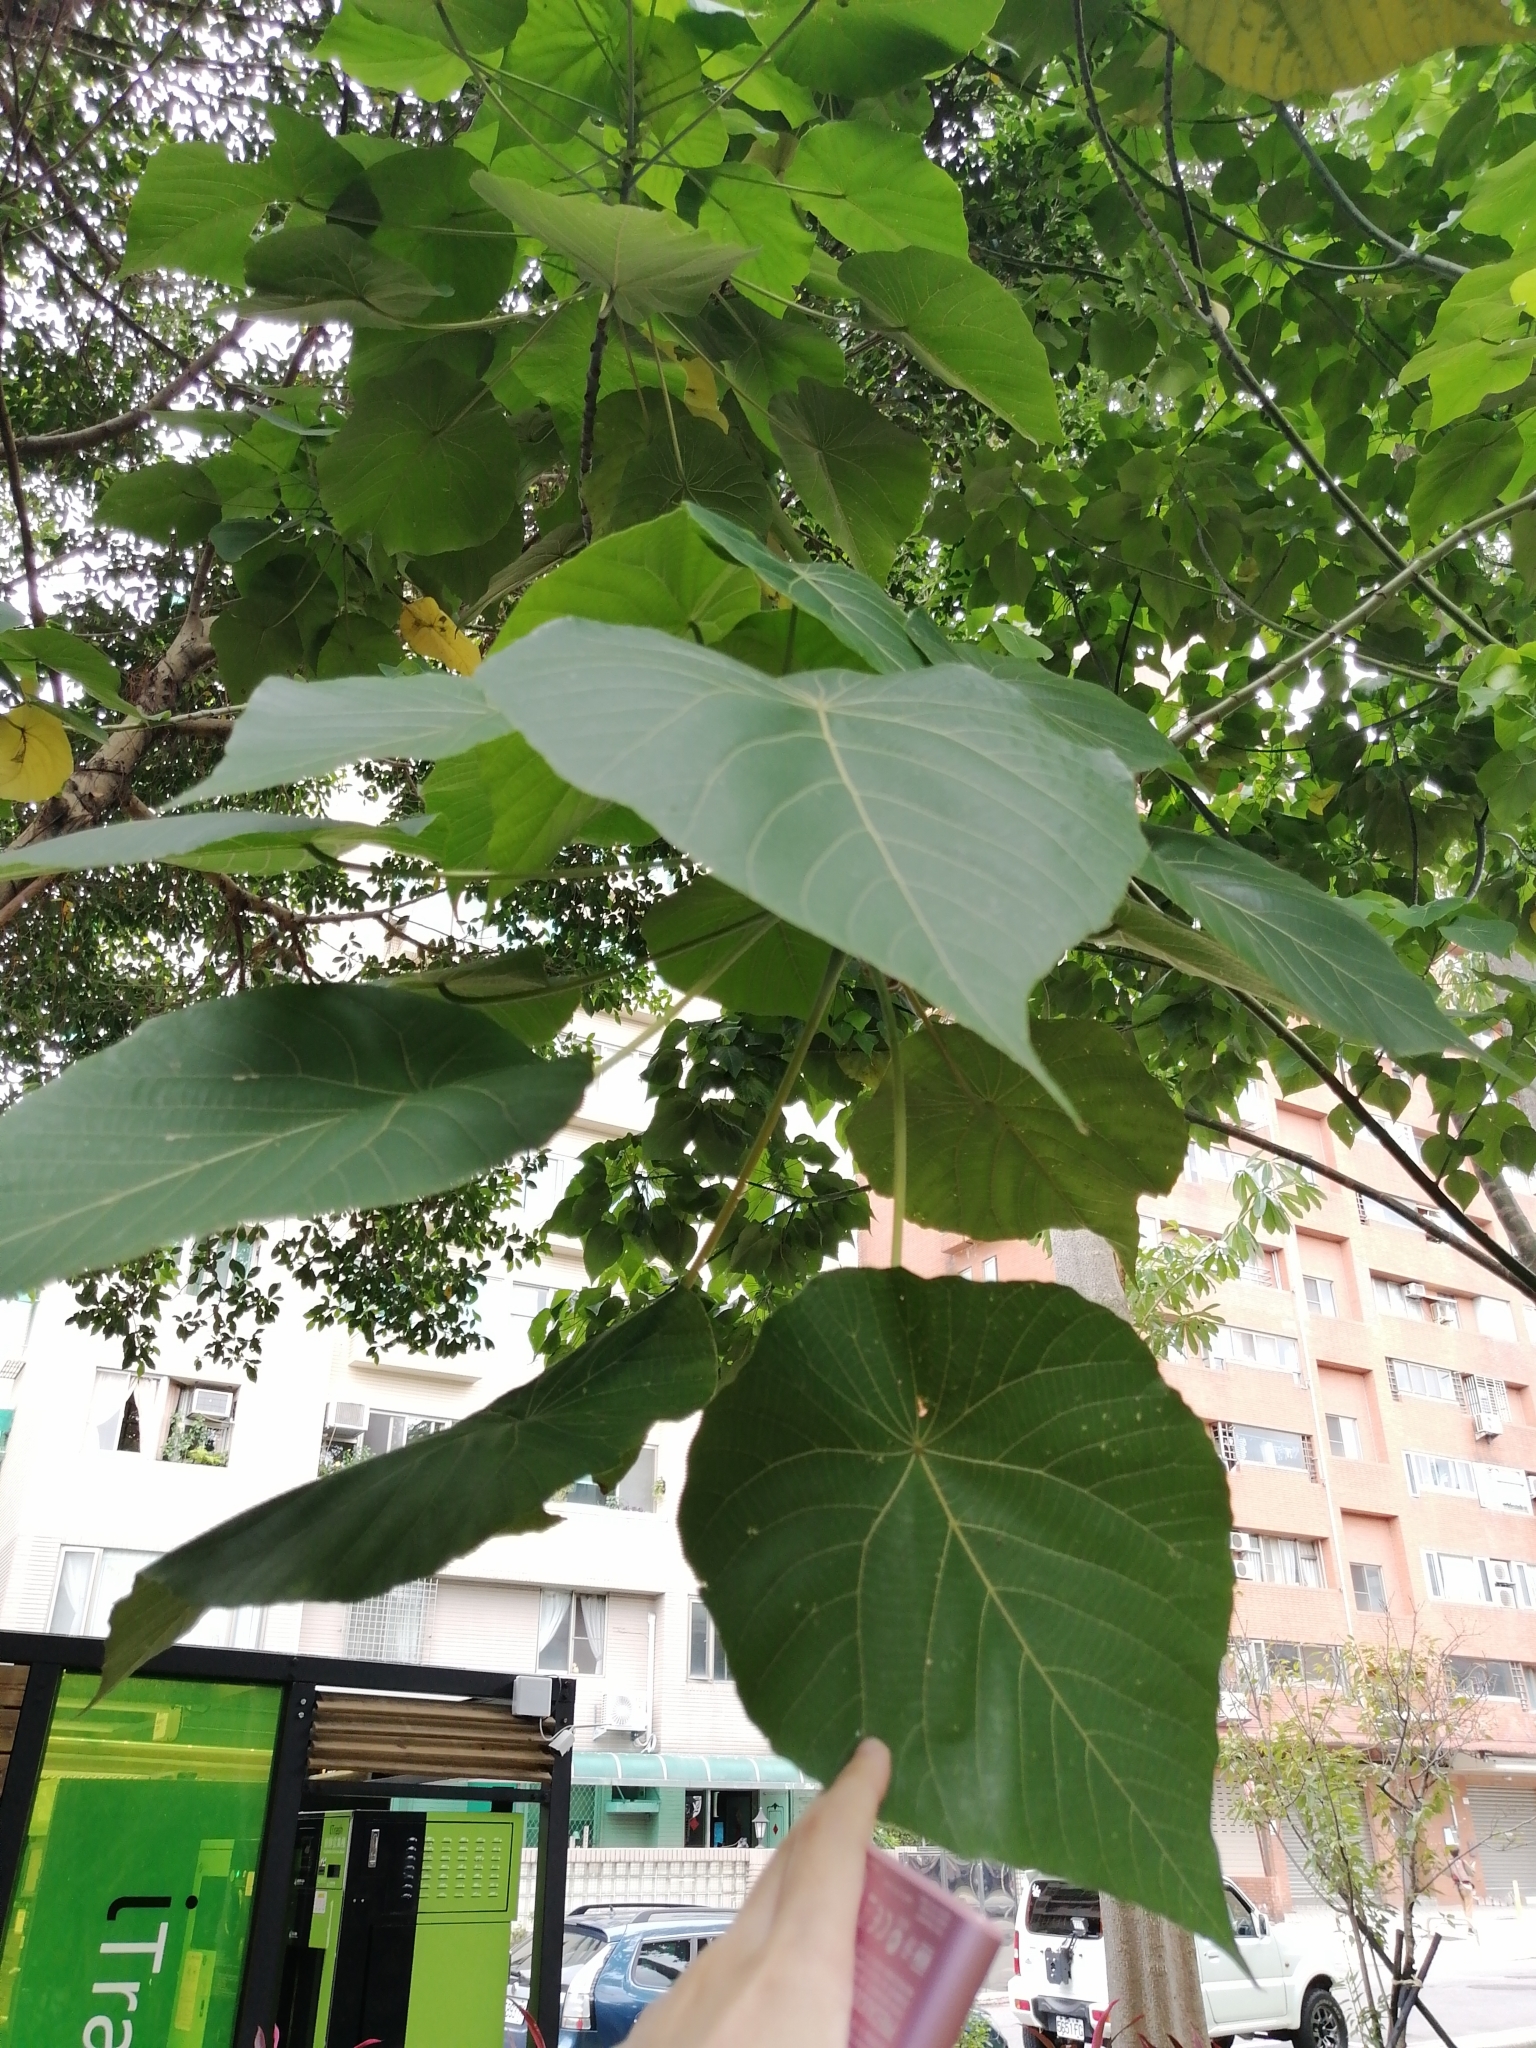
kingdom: Plantae
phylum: Tracheophyta
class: Magnoliopsida
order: Malpighiales
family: Euphorbiaceae
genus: Macaranga
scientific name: Macaranga tanarius
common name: Parasol leaf tree
